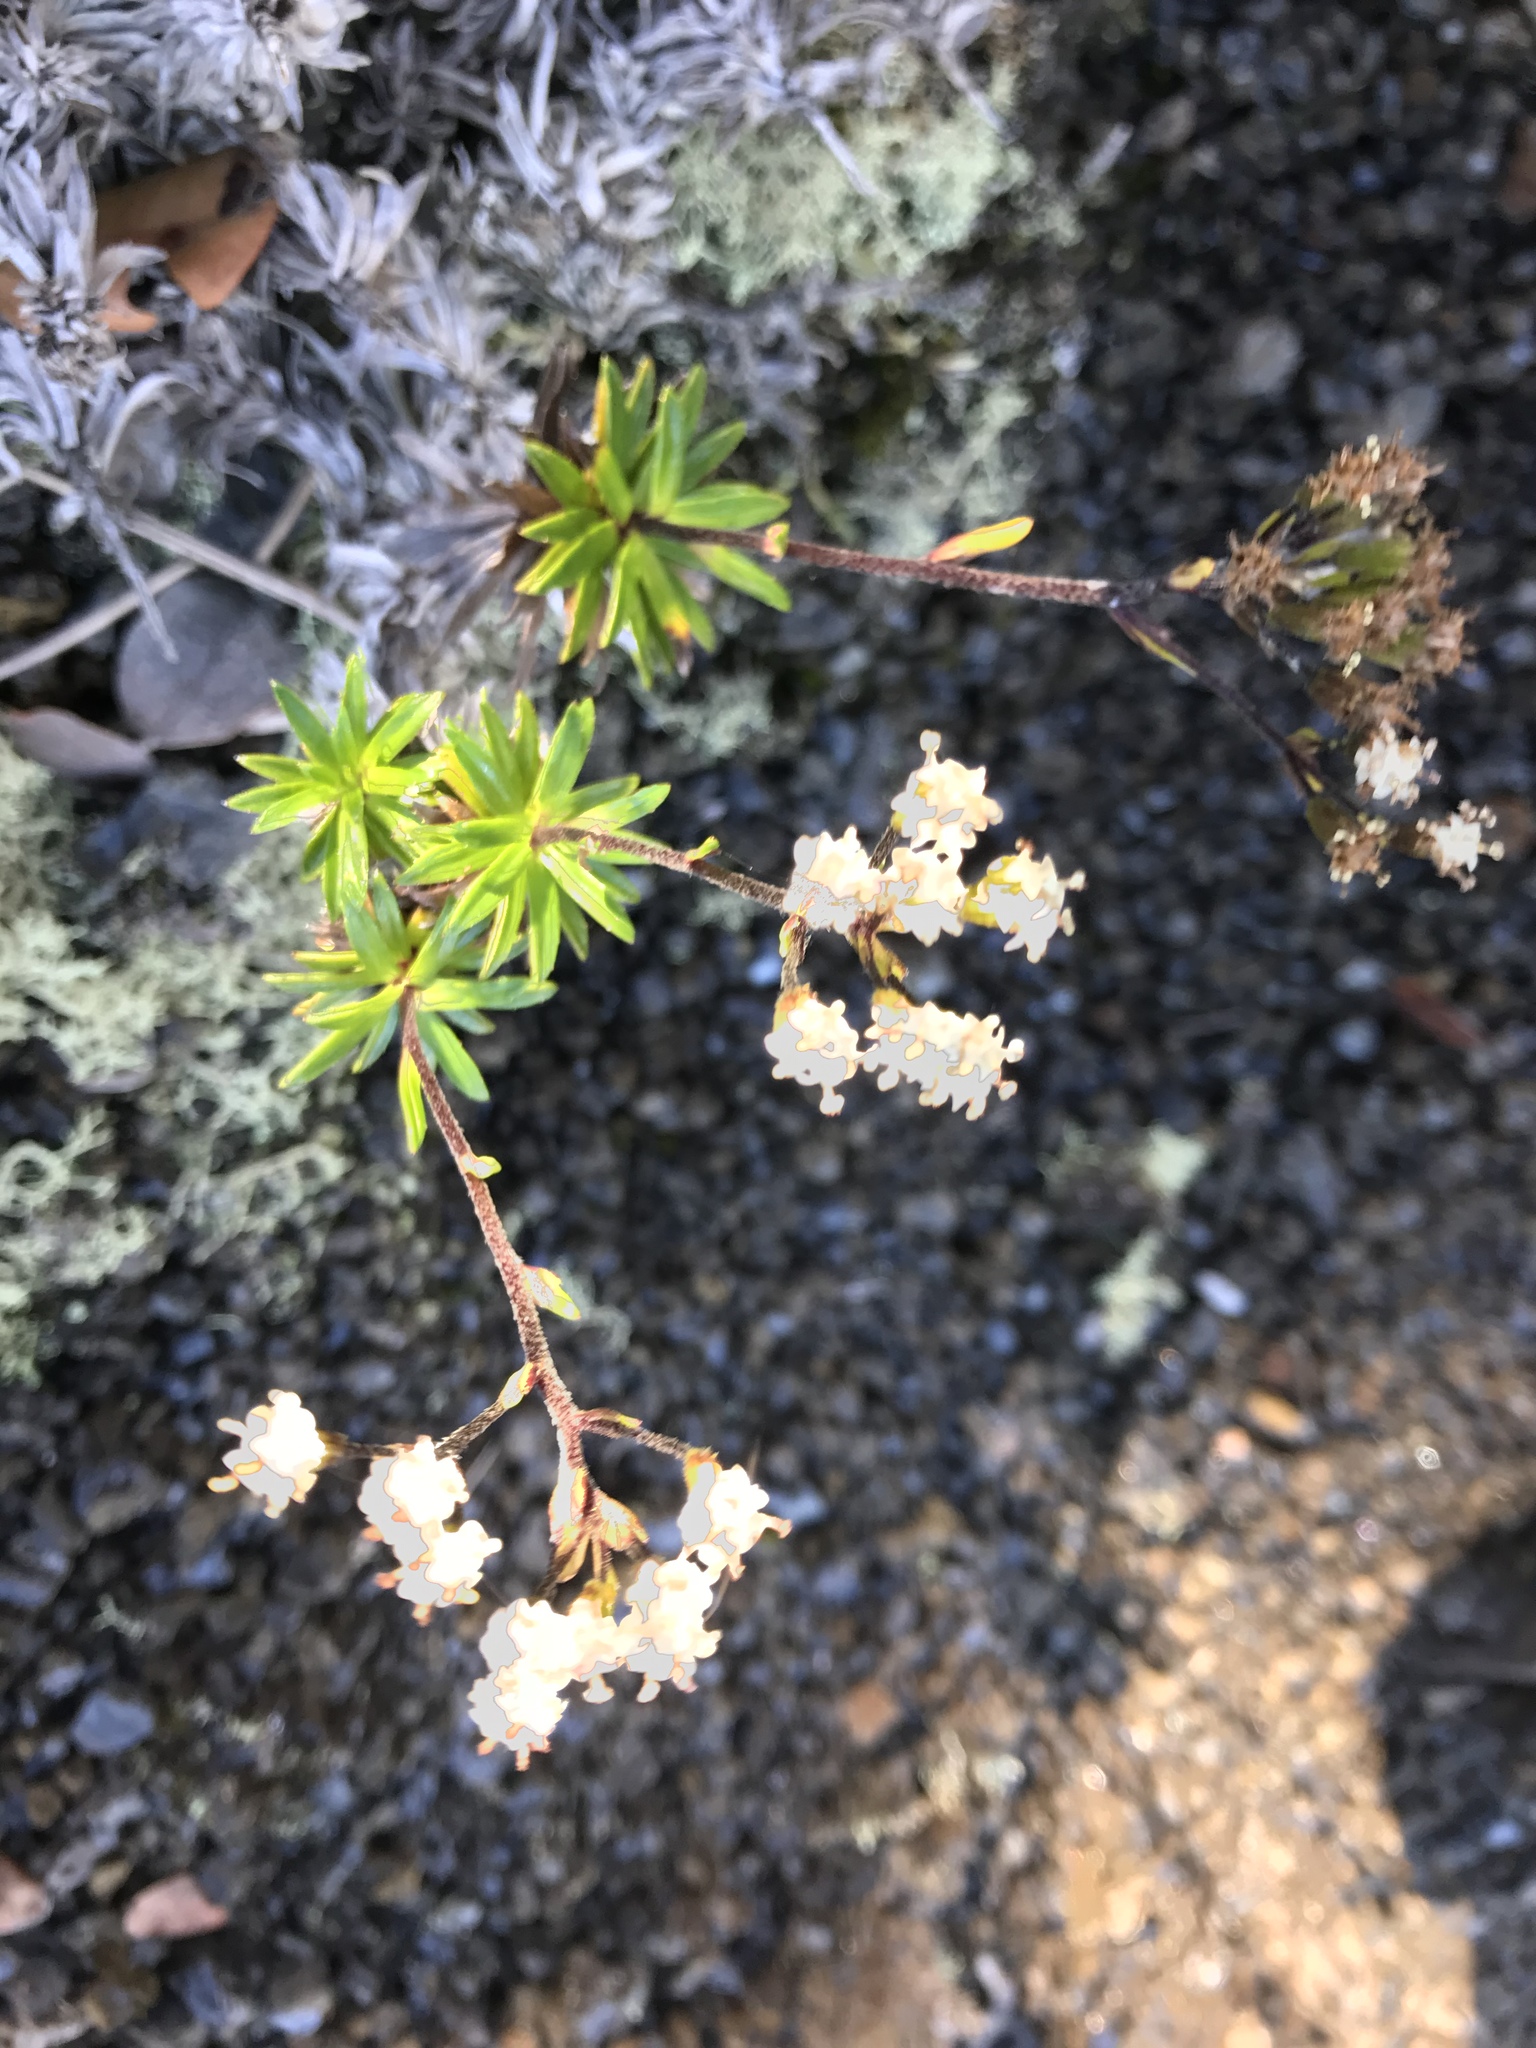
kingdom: Plantae
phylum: Tracheophyta
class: Magnoliopsida
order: Asterales
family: Asteraceae
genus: Dubautia
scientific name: Dubautia scabra
